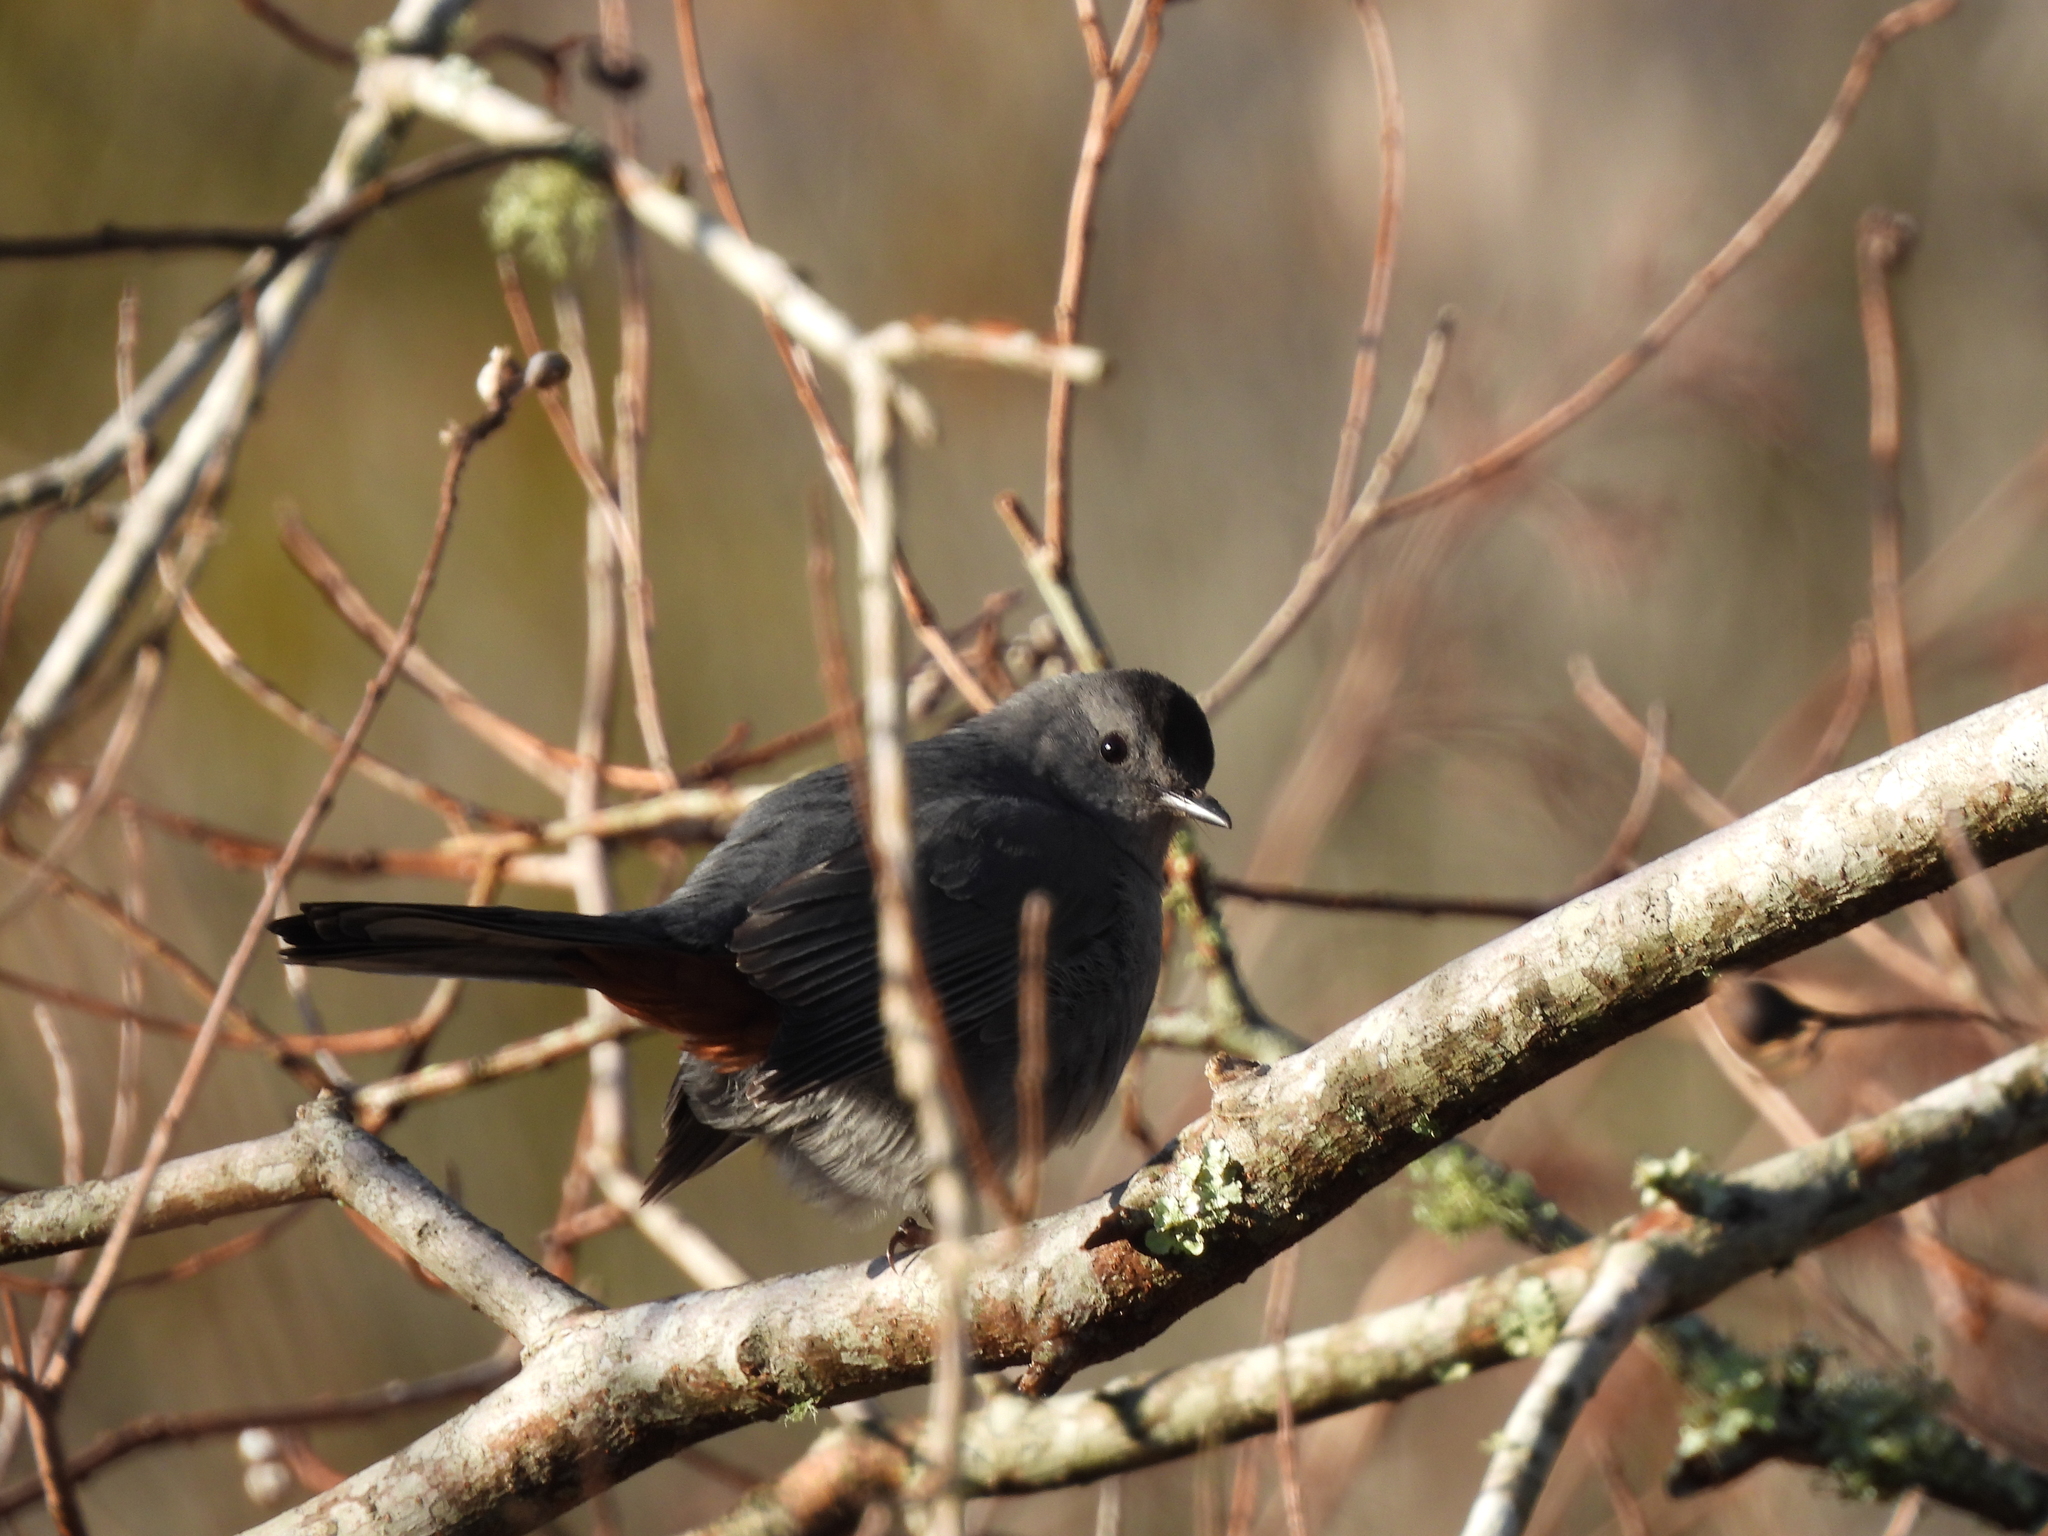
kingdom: Animalia
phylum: Chordata
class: Aves
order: Passeriformes
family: Mimidae
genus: Dumetella
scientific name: Dumetella carolinensis
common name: Gray catbird
